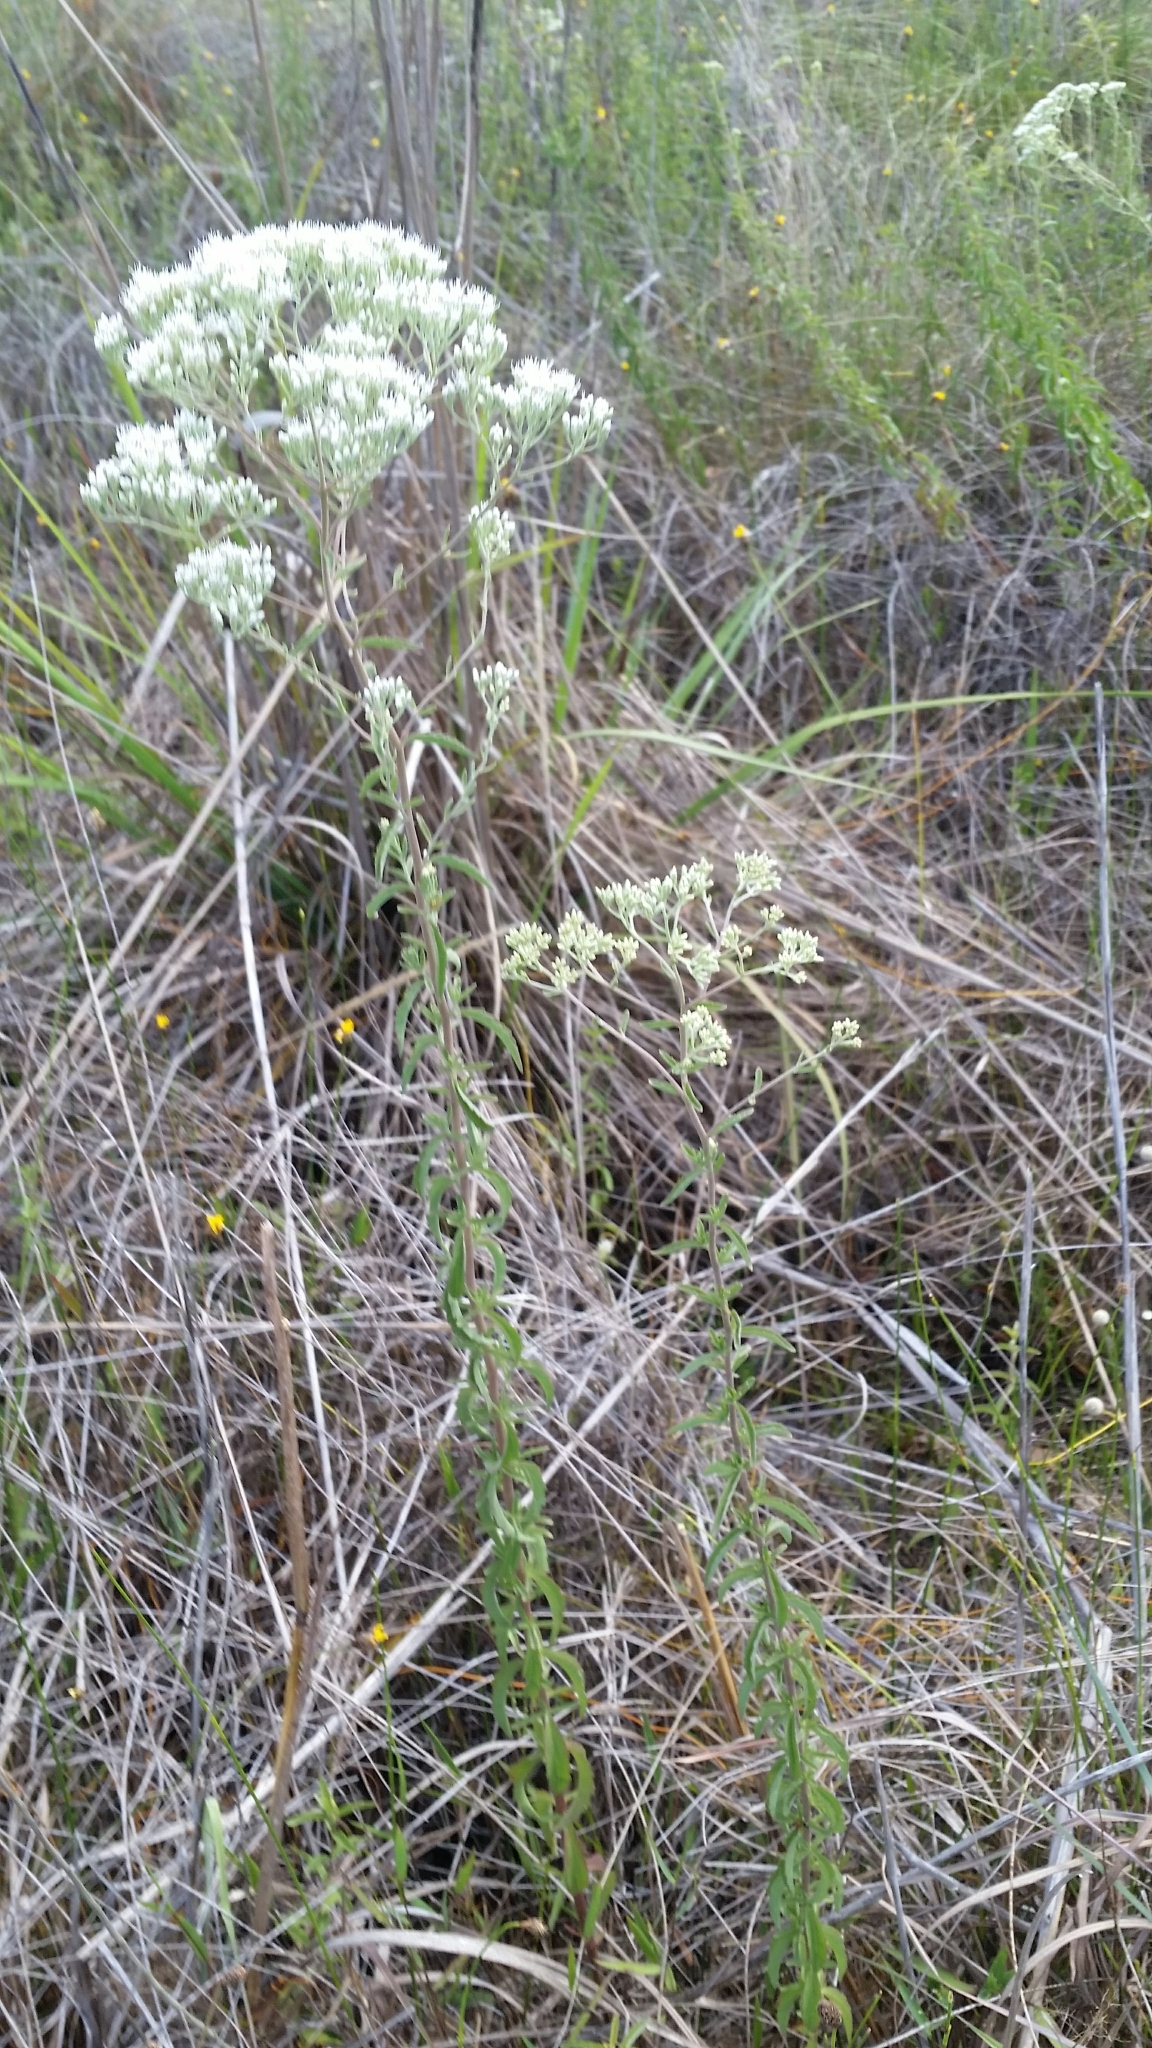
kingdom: Plantae
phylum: Tracheophyta
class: Magnoliopsida
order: Asterales
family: Asteraceae
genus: Eupatorium
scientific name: Eupatorium mohrii
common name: Mohr's thoroughwort
